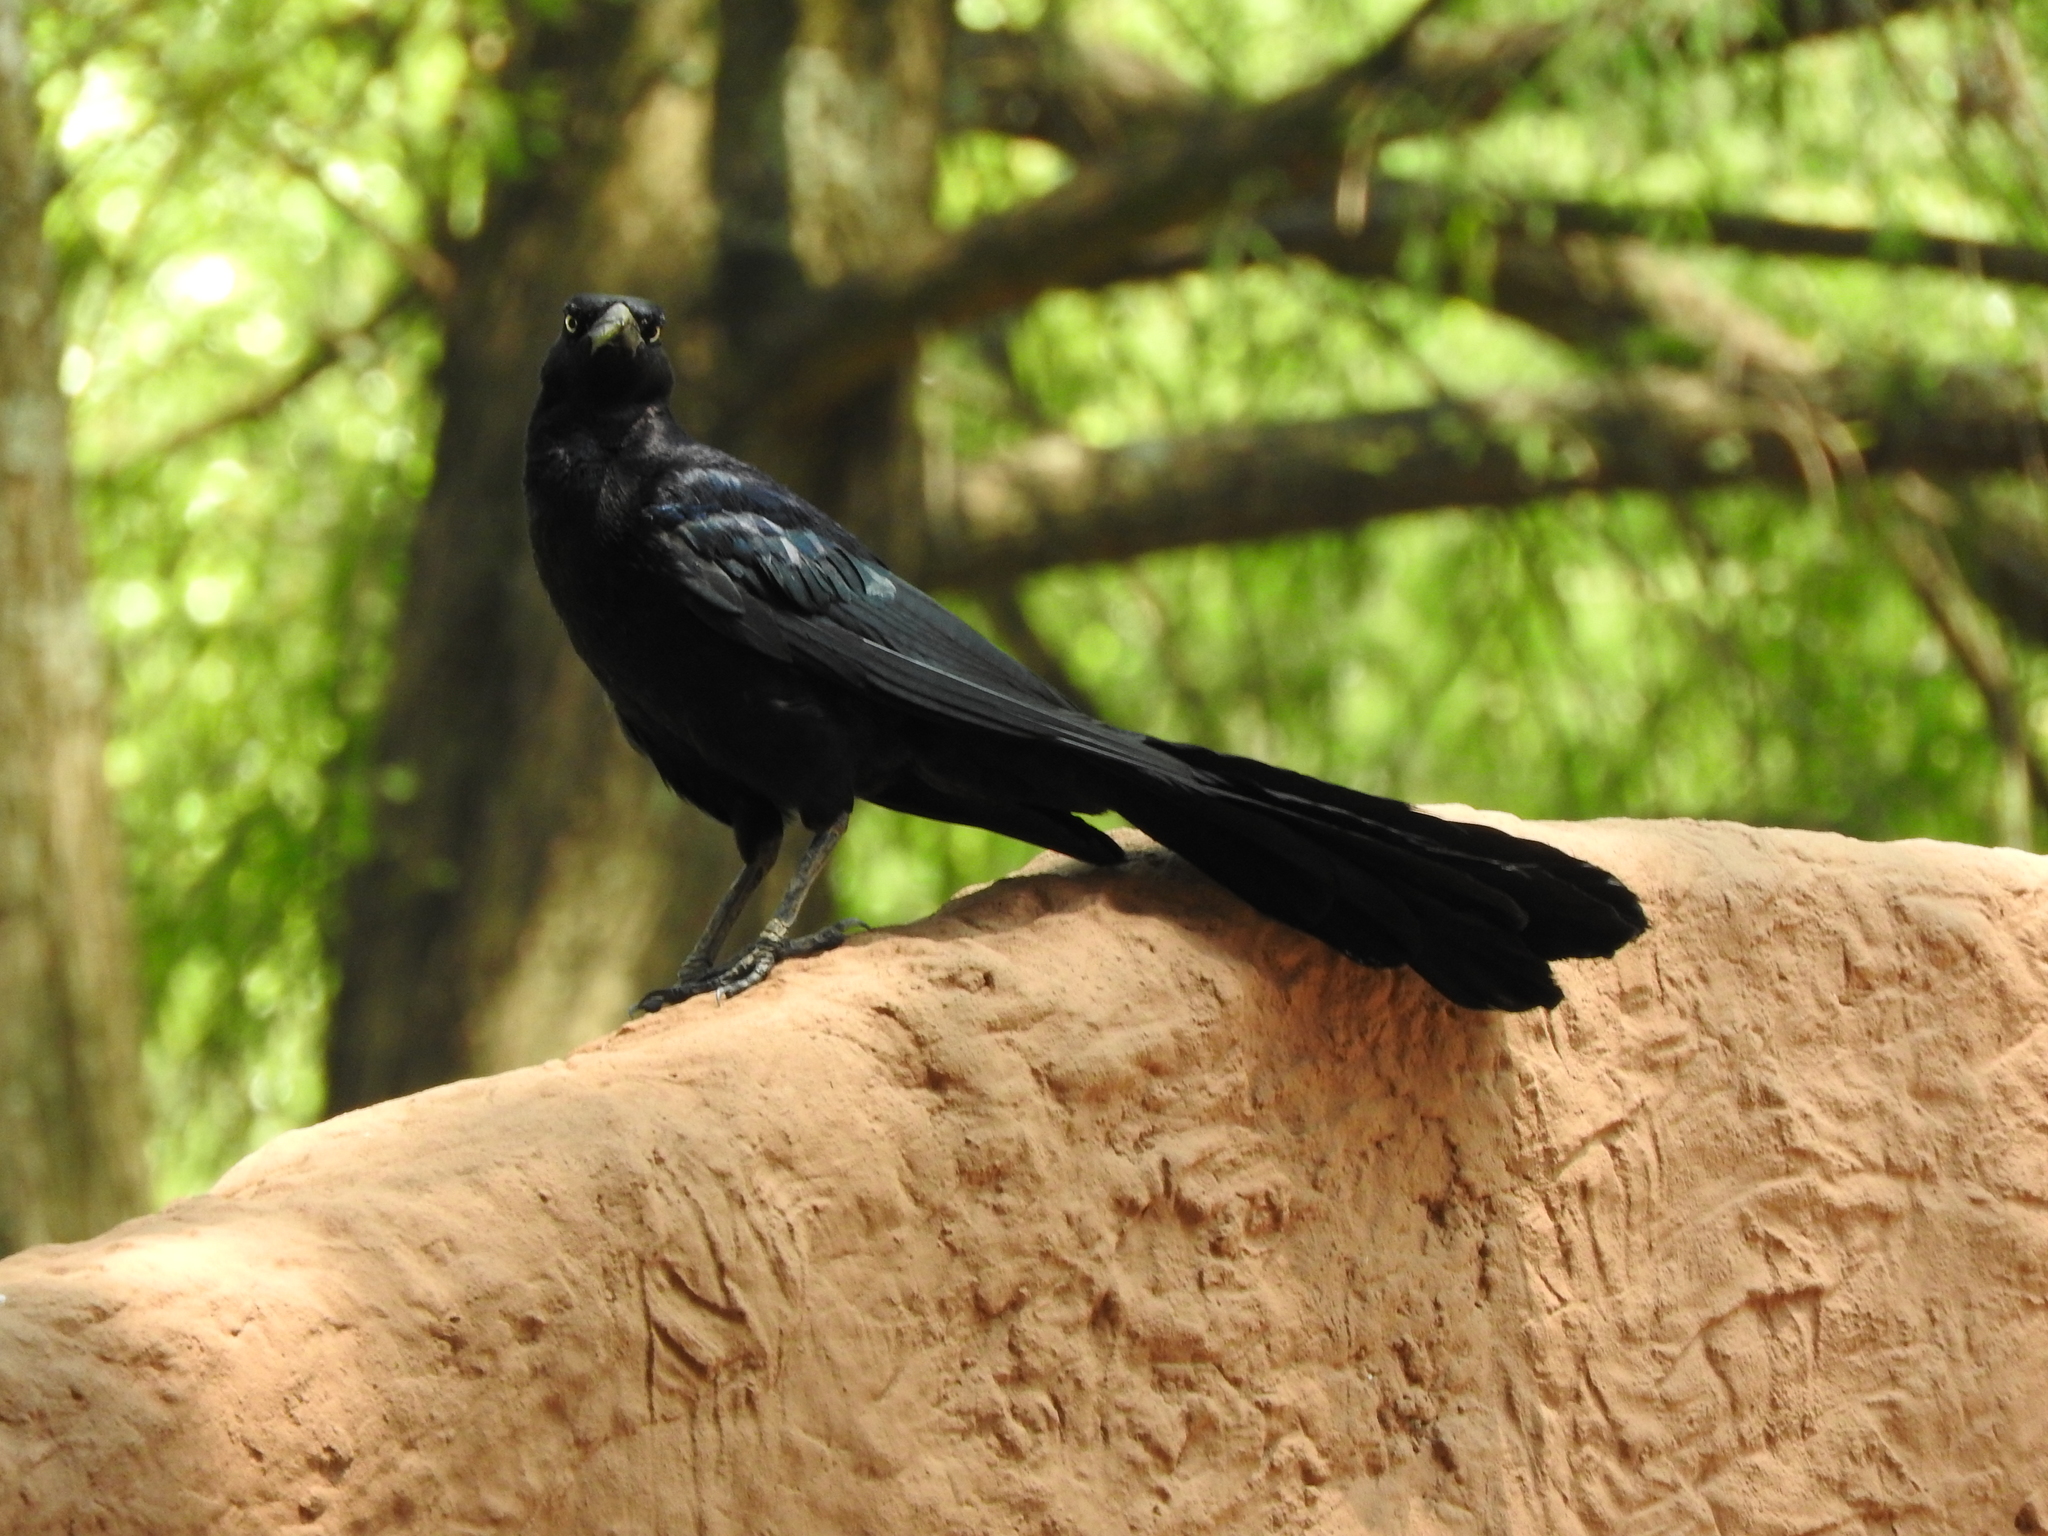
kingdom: Animalia
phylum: Chordata
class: Aves
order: Passeriformes
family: Icteridae
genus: Quiscalus
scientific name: Quiscalus mexicanus
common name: Great-tailed grackle
